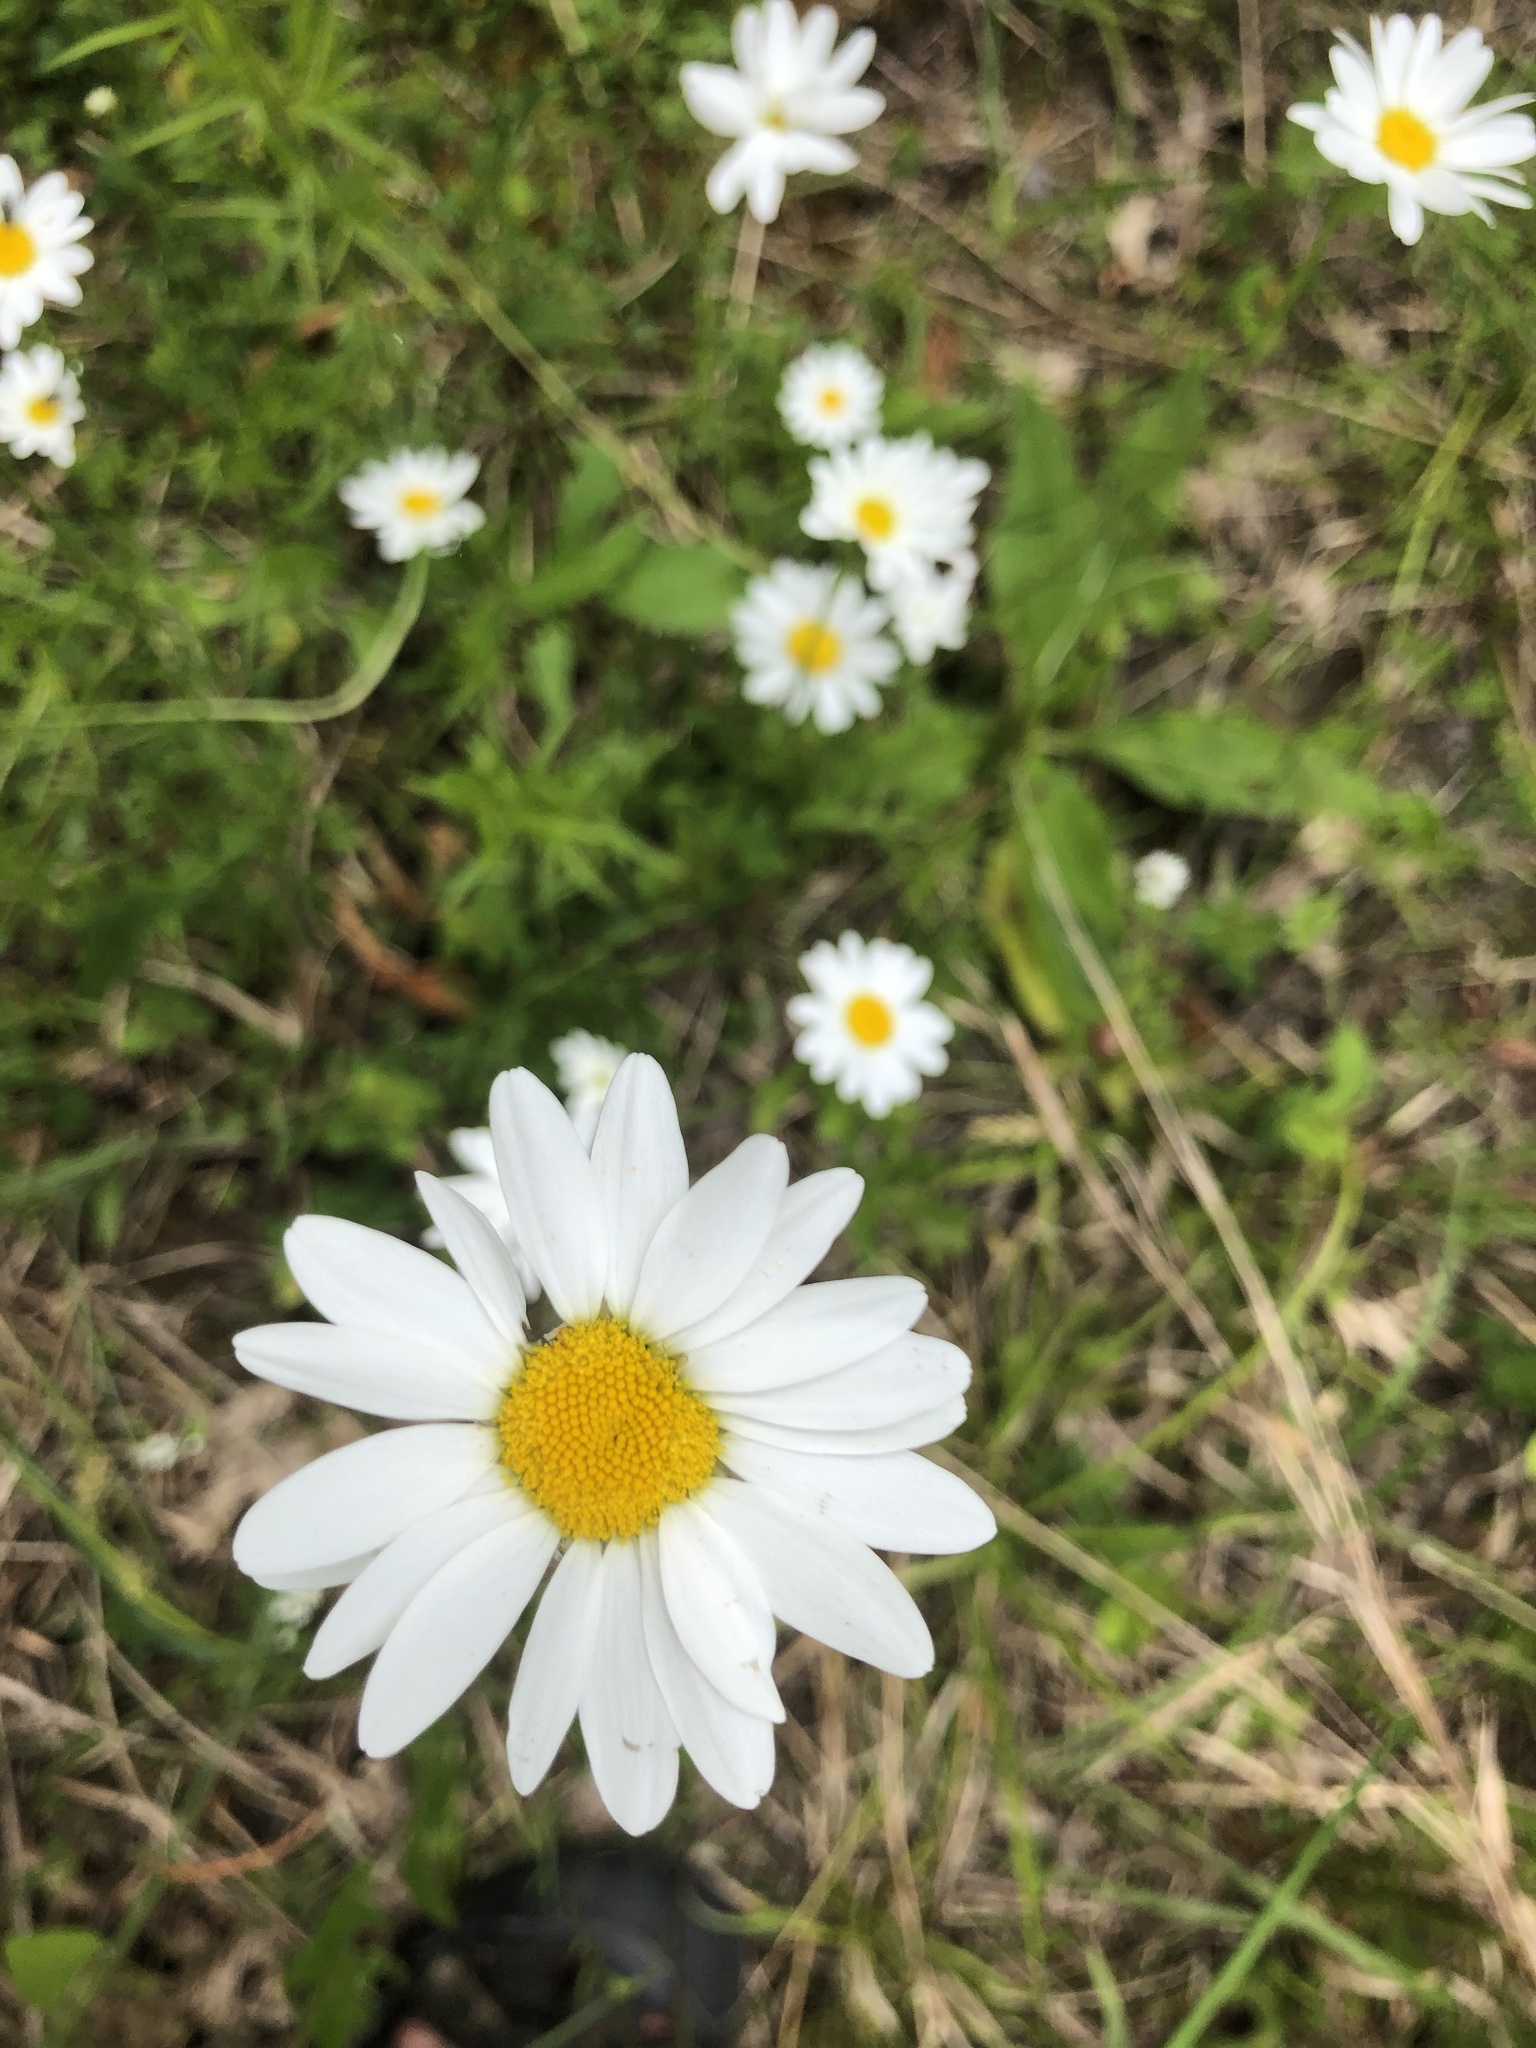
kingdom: Plantae
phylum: Tracheophyta
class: Magnoliopsida
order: Asterales
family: Asteraceae
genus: Leucanthemum
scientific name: Leucanthemum vulgare
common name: Oxeye daisy
